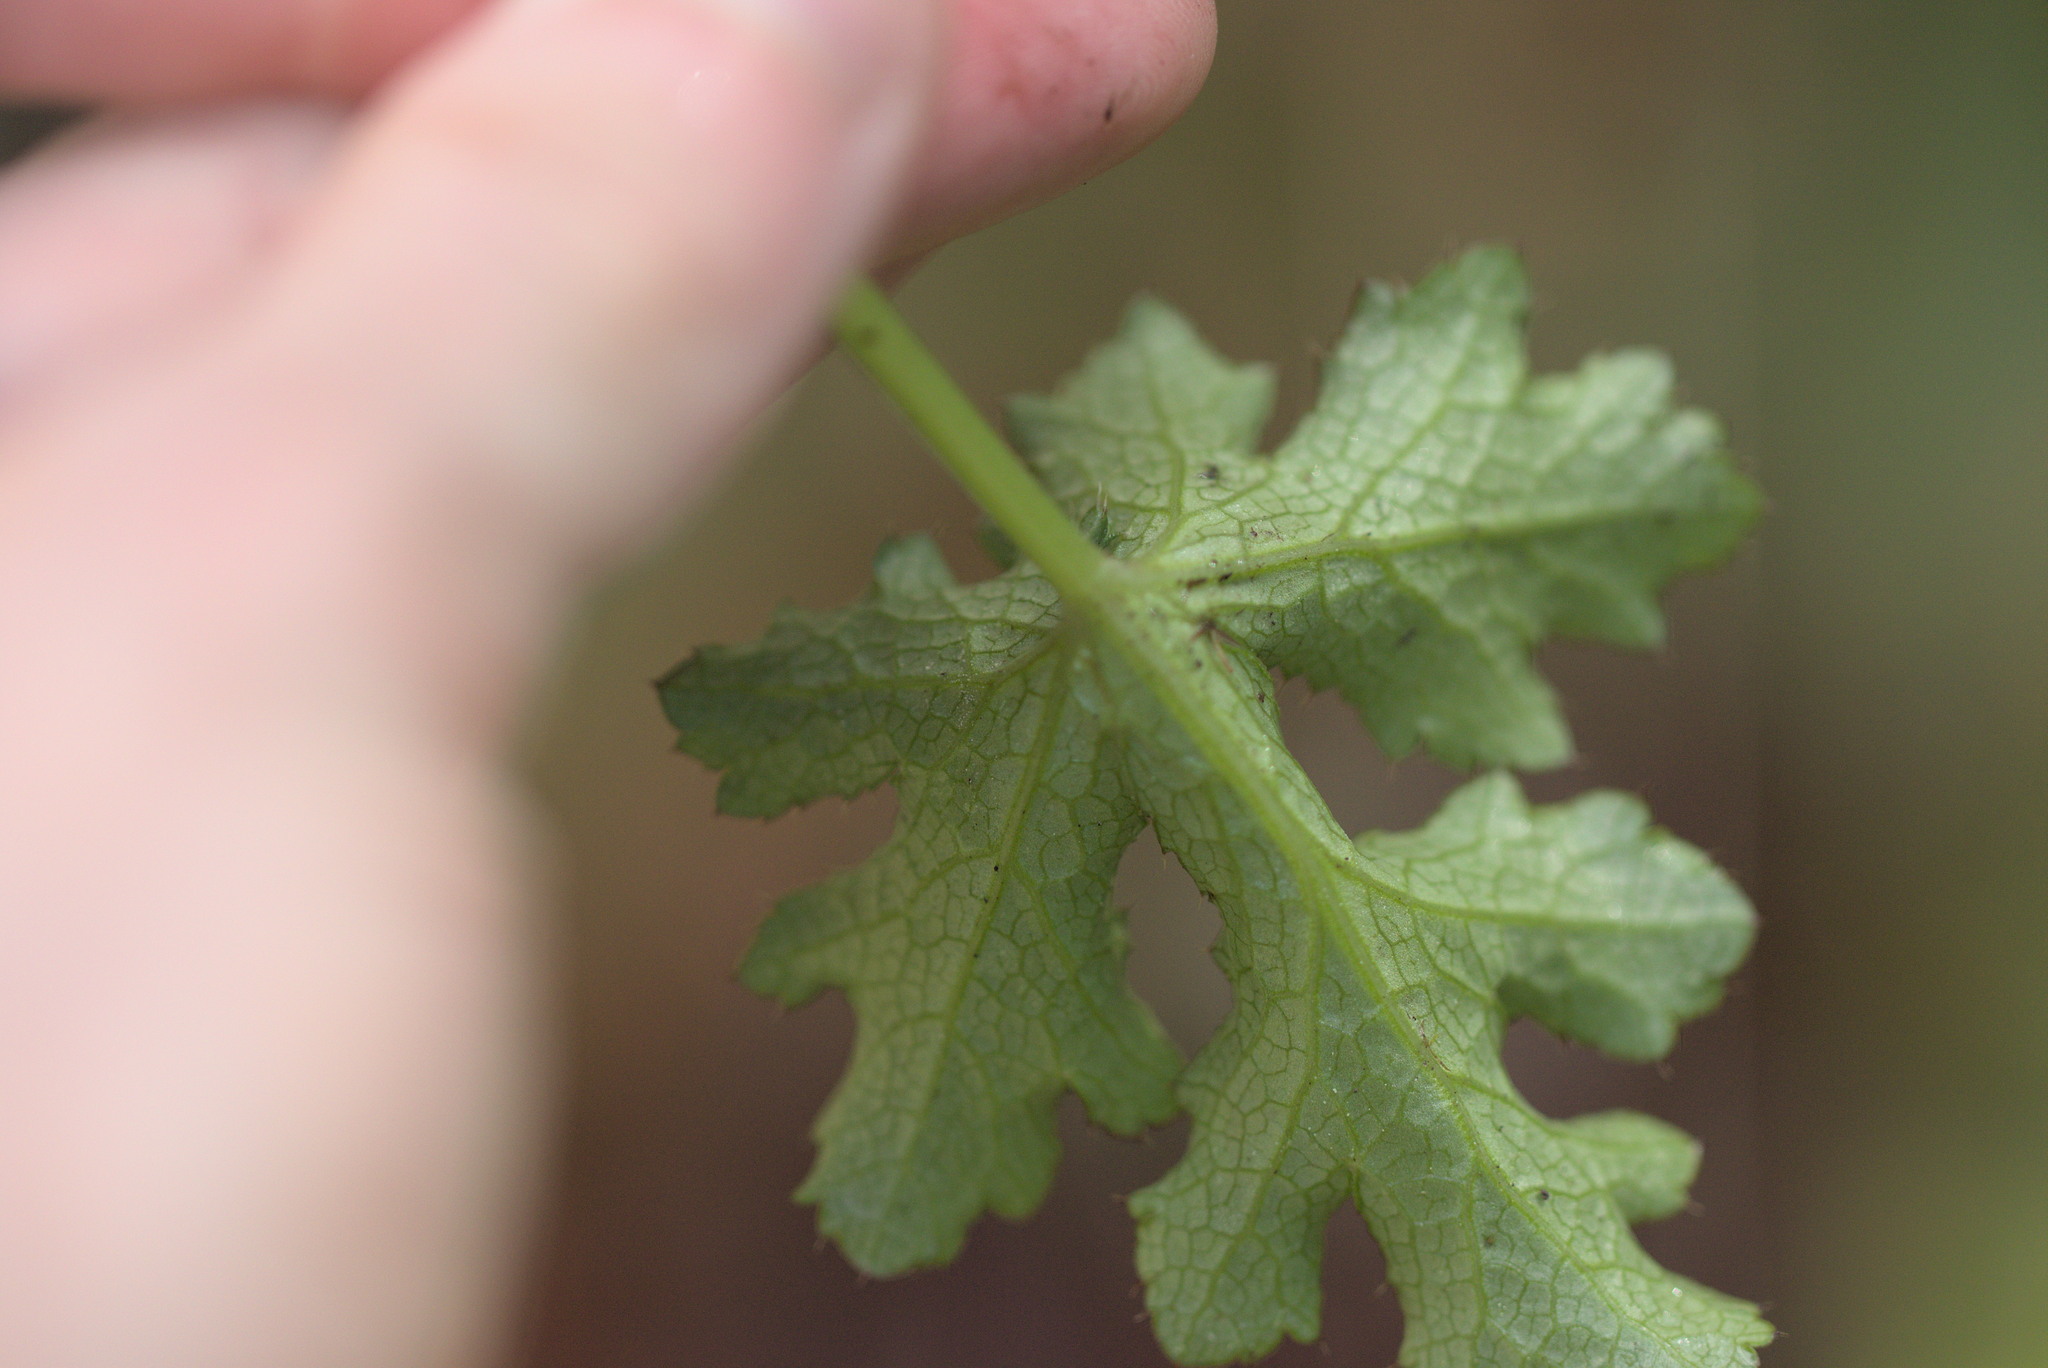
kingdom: Plantae
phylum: Tracheophyta
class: Magnoliopsida
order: Apiales
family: Apiaceae
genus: Sanicula
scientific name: Sanicula crassicaulis
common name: Western snakeroot
